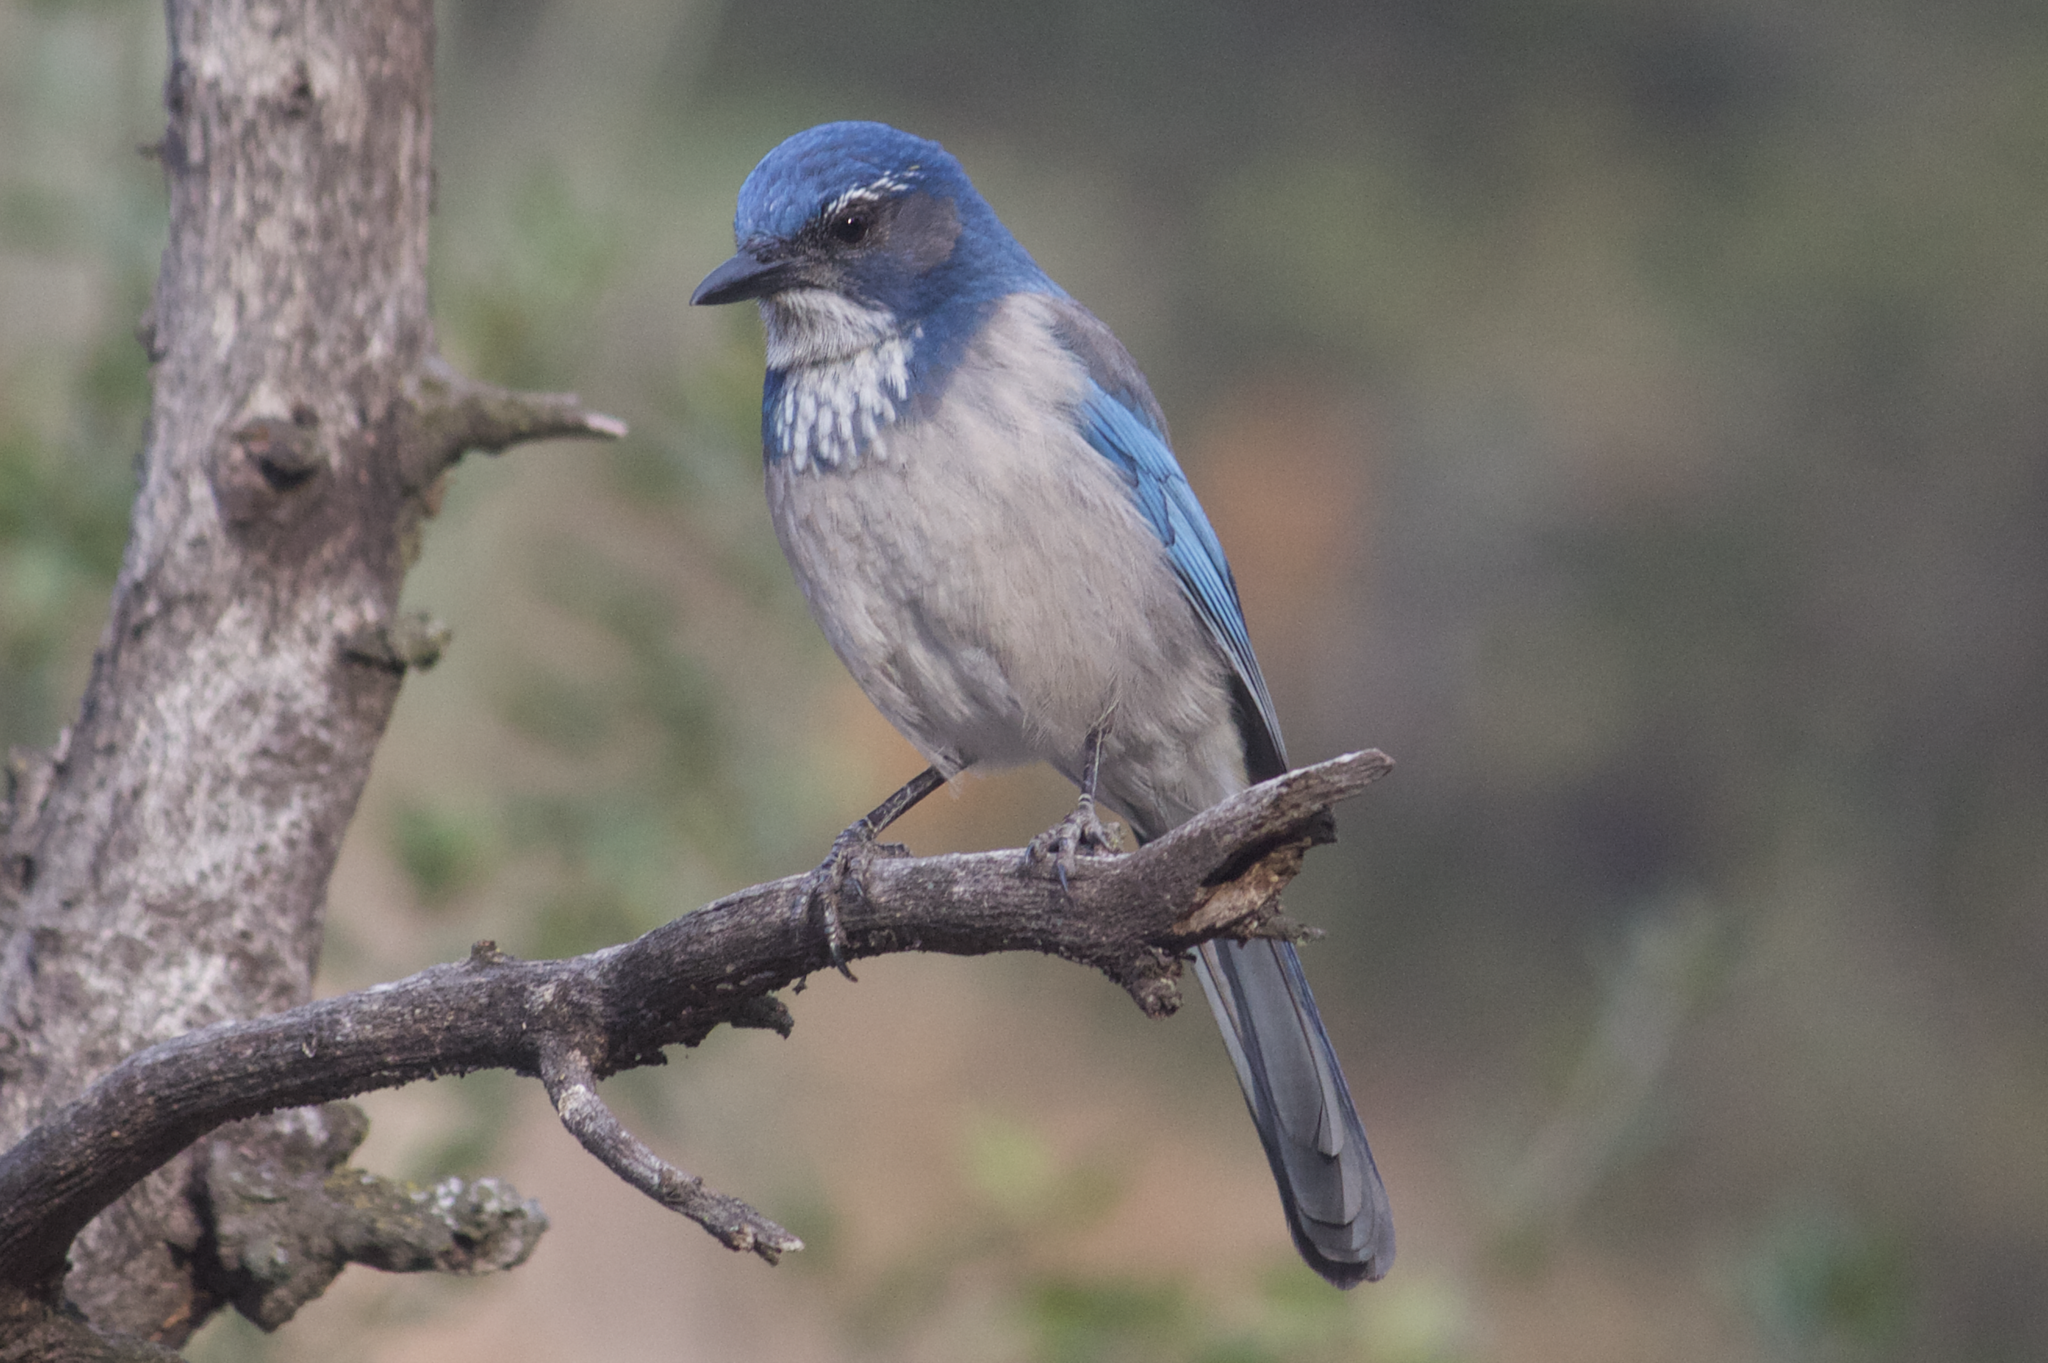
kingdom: Animalia
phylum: Chordata
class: Aves
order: Passeriformes
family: Corvidae
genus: Aphelocoma
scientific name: Aphelocoma californica
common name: California scrub-jay
